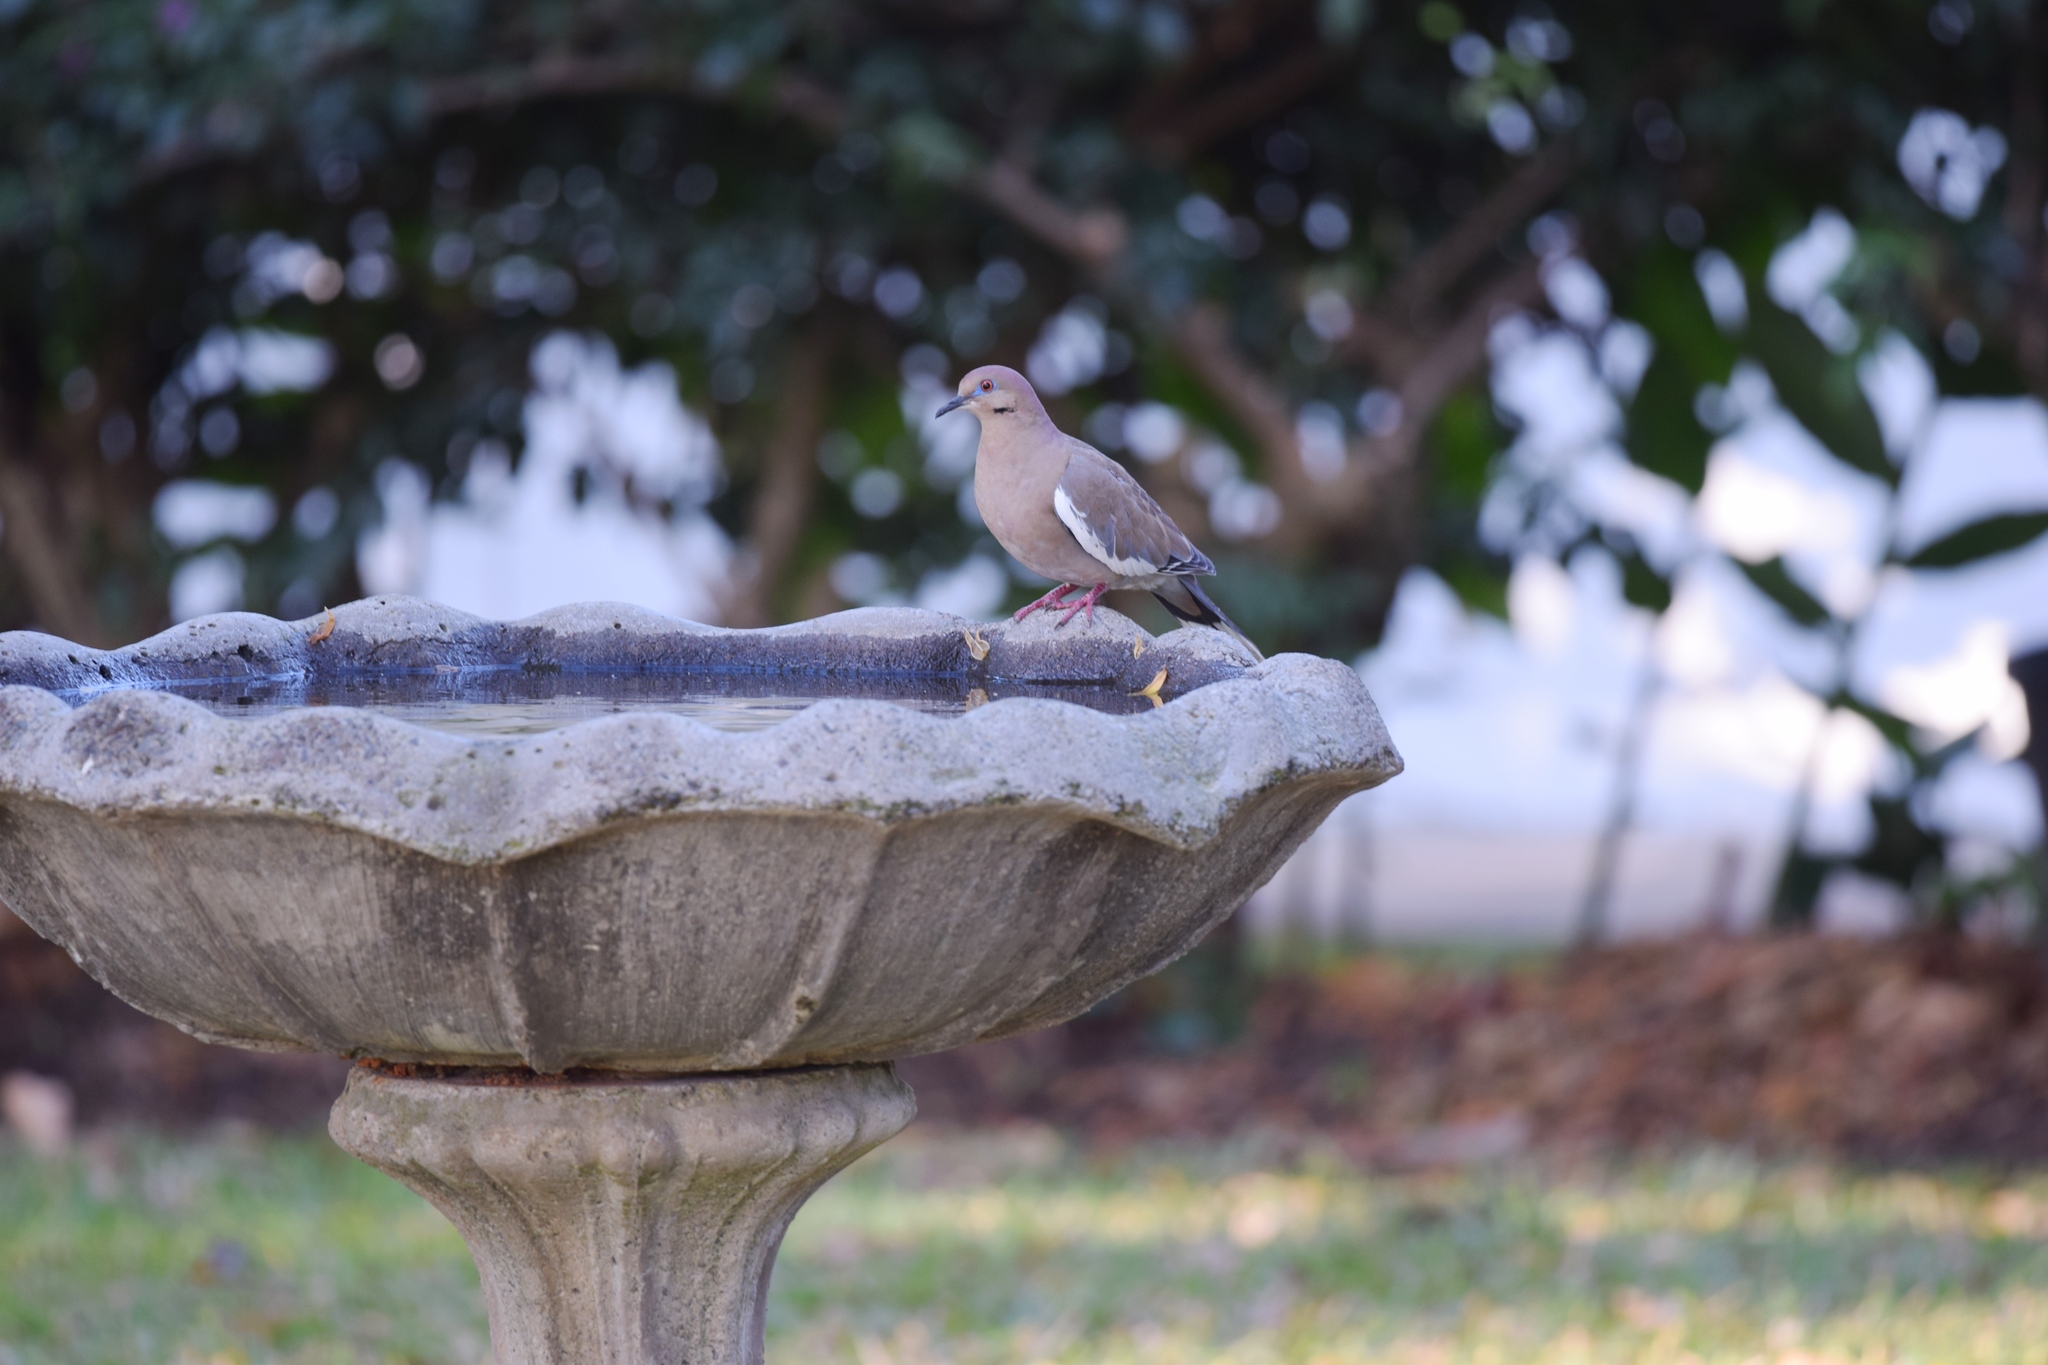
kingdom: Animalia
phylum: Chordata
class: Aves
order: Columbiformes
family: Columbidae
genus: Zenaida
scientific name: Zenaida asiatica
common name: White-winged dove
